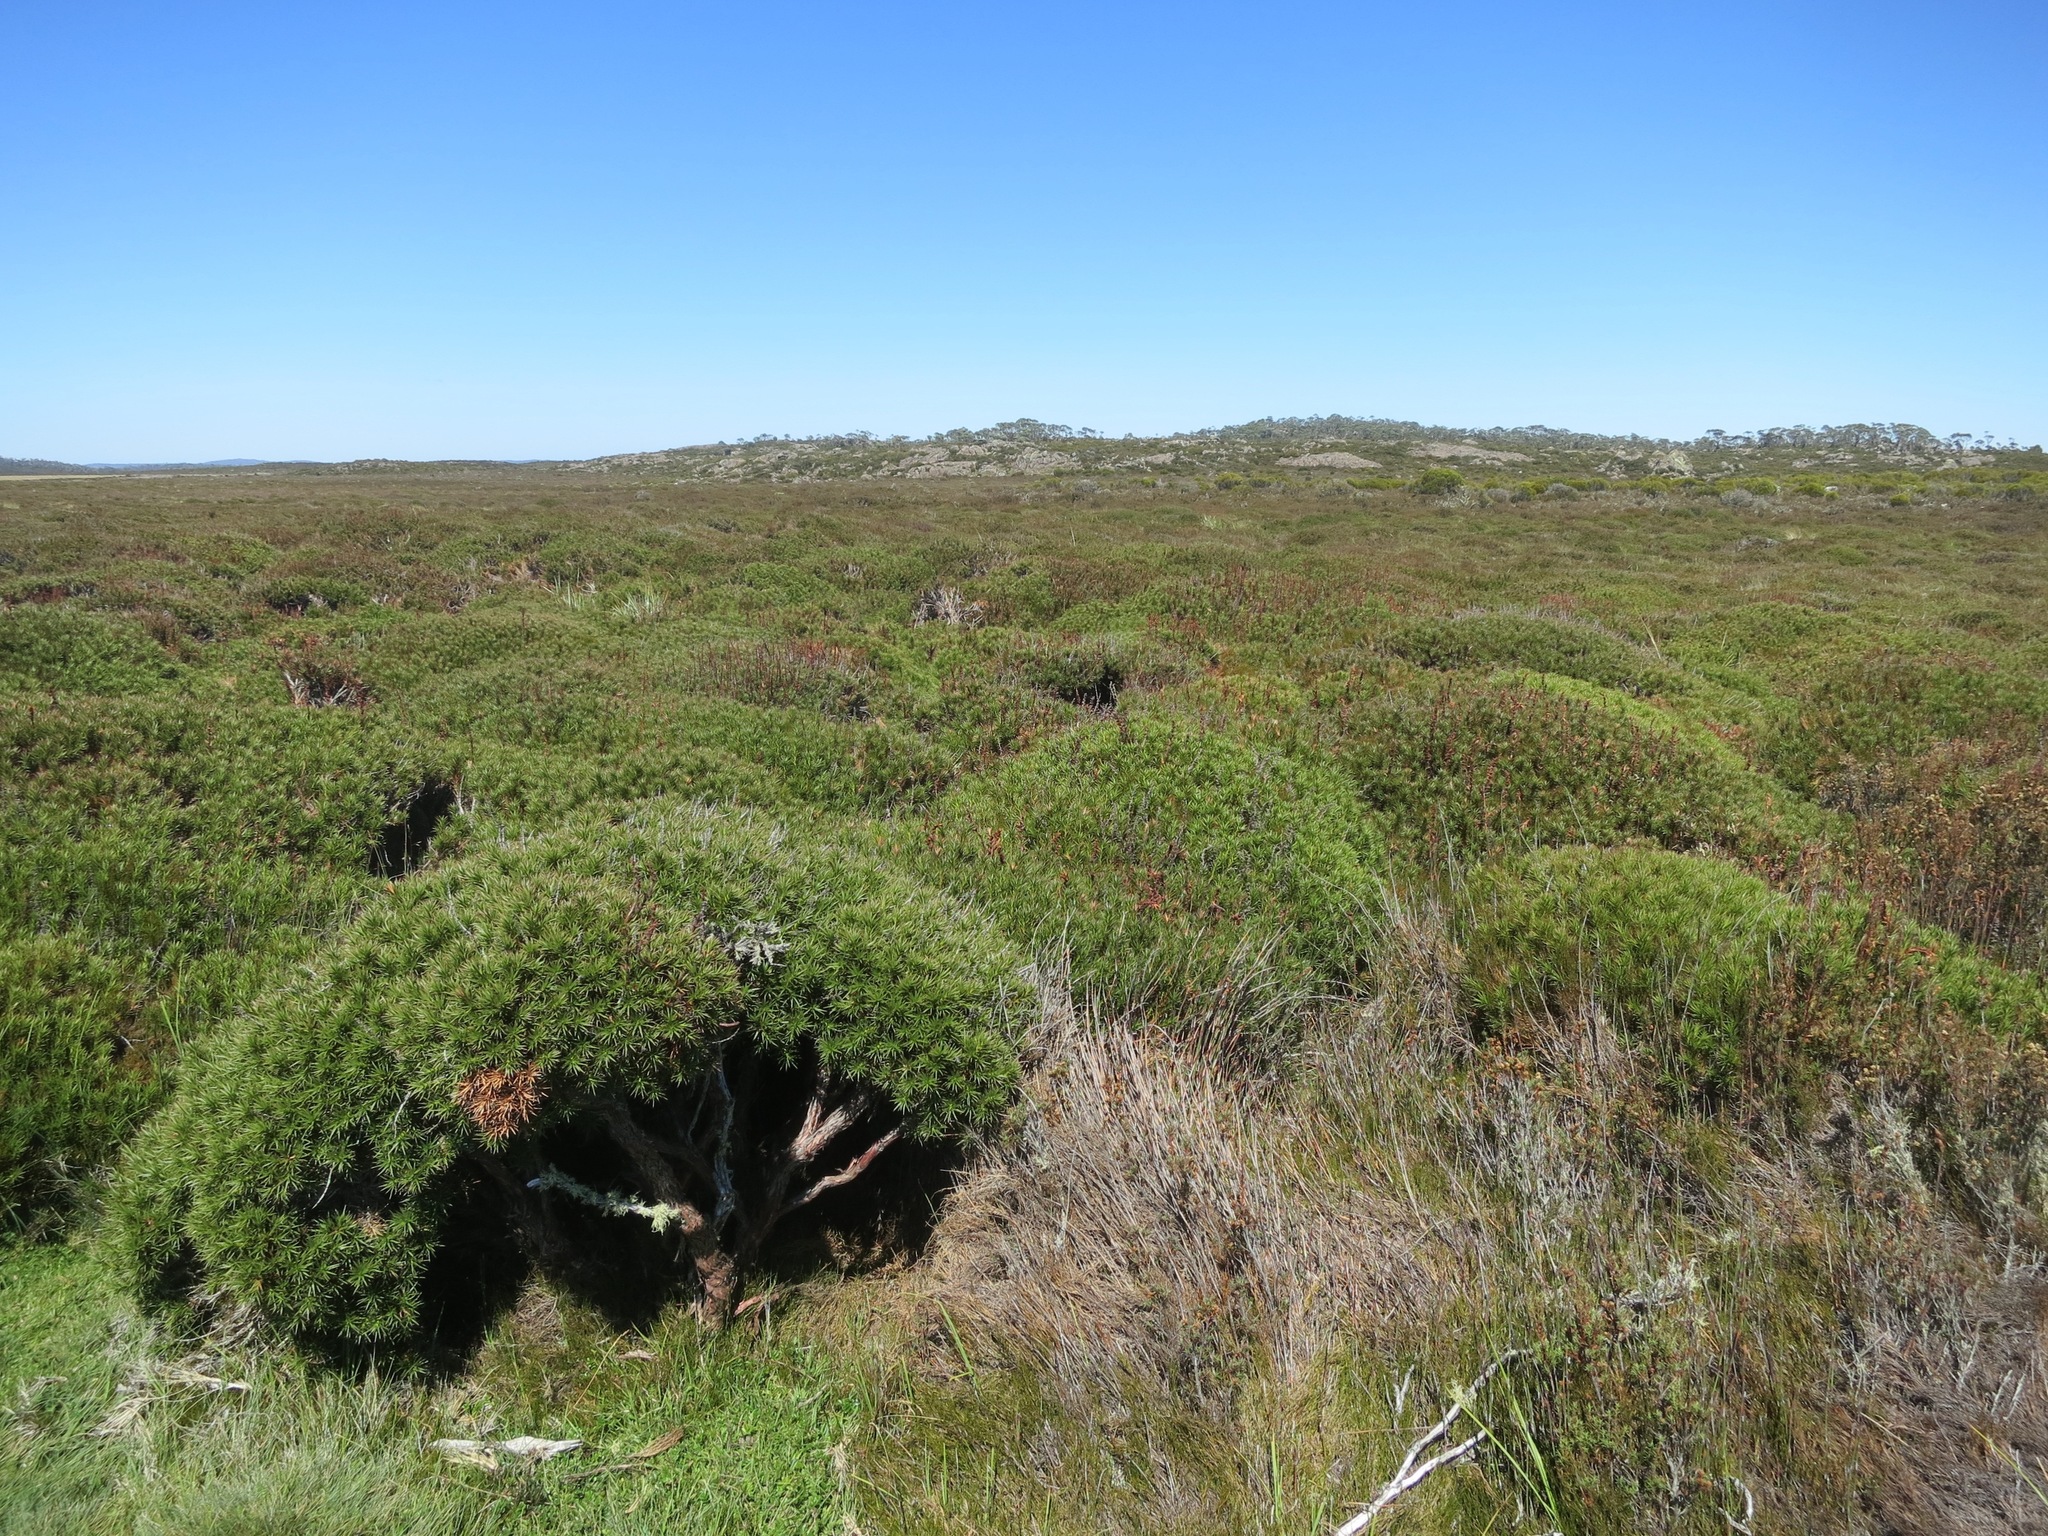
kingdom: Plantae
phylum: Tracheophyta
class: Magnoliopsida
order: Ericales
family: Ericaceae
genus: Dracophyllum
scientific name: Dracophyllum persistentifolium
